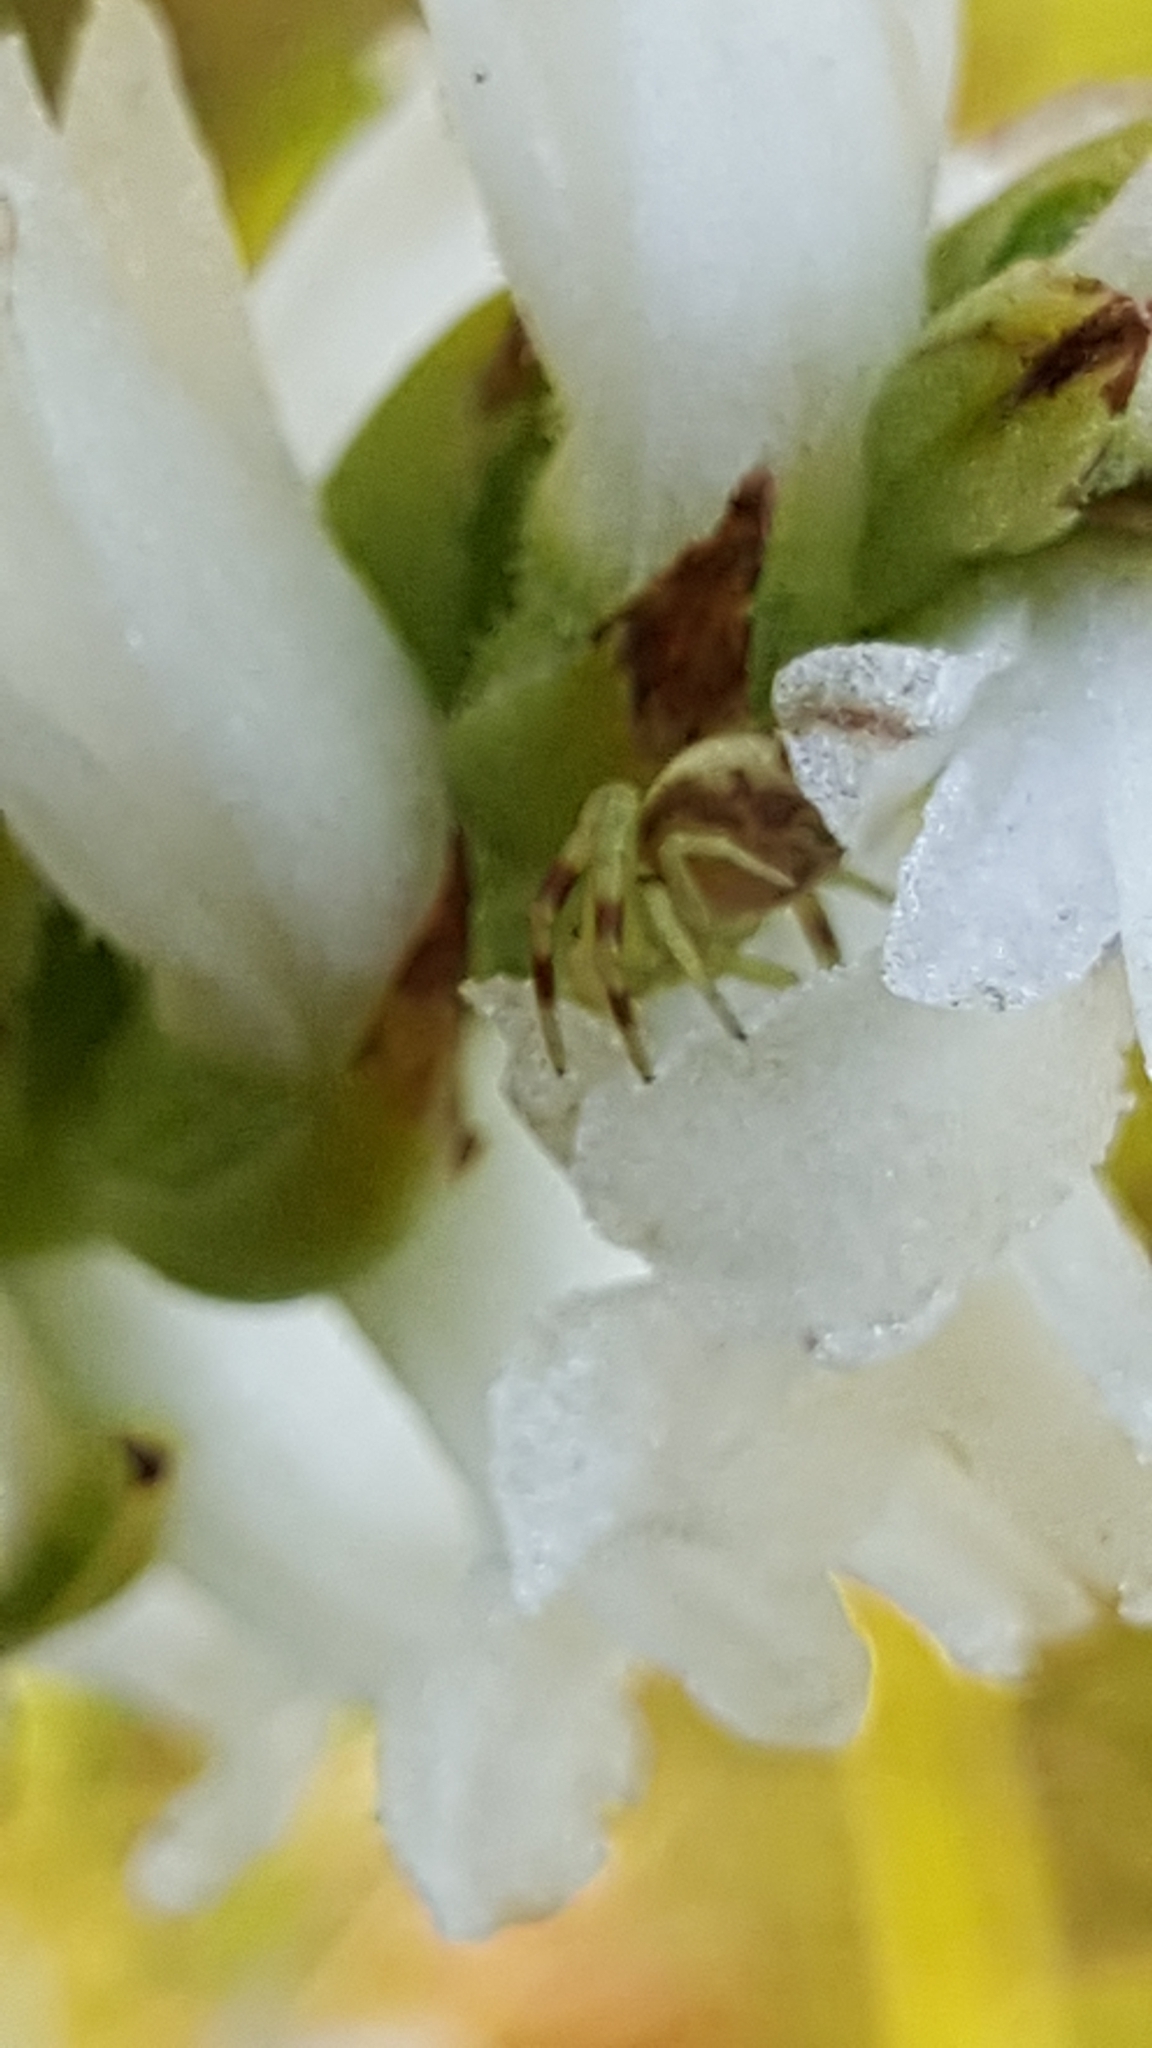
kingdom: Animalia
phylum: Arthropoda
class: Arachnida
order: Araneae
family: Thomisidae
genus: Misumena
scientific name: Misumena vatia
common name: Goldenrod crab spider
